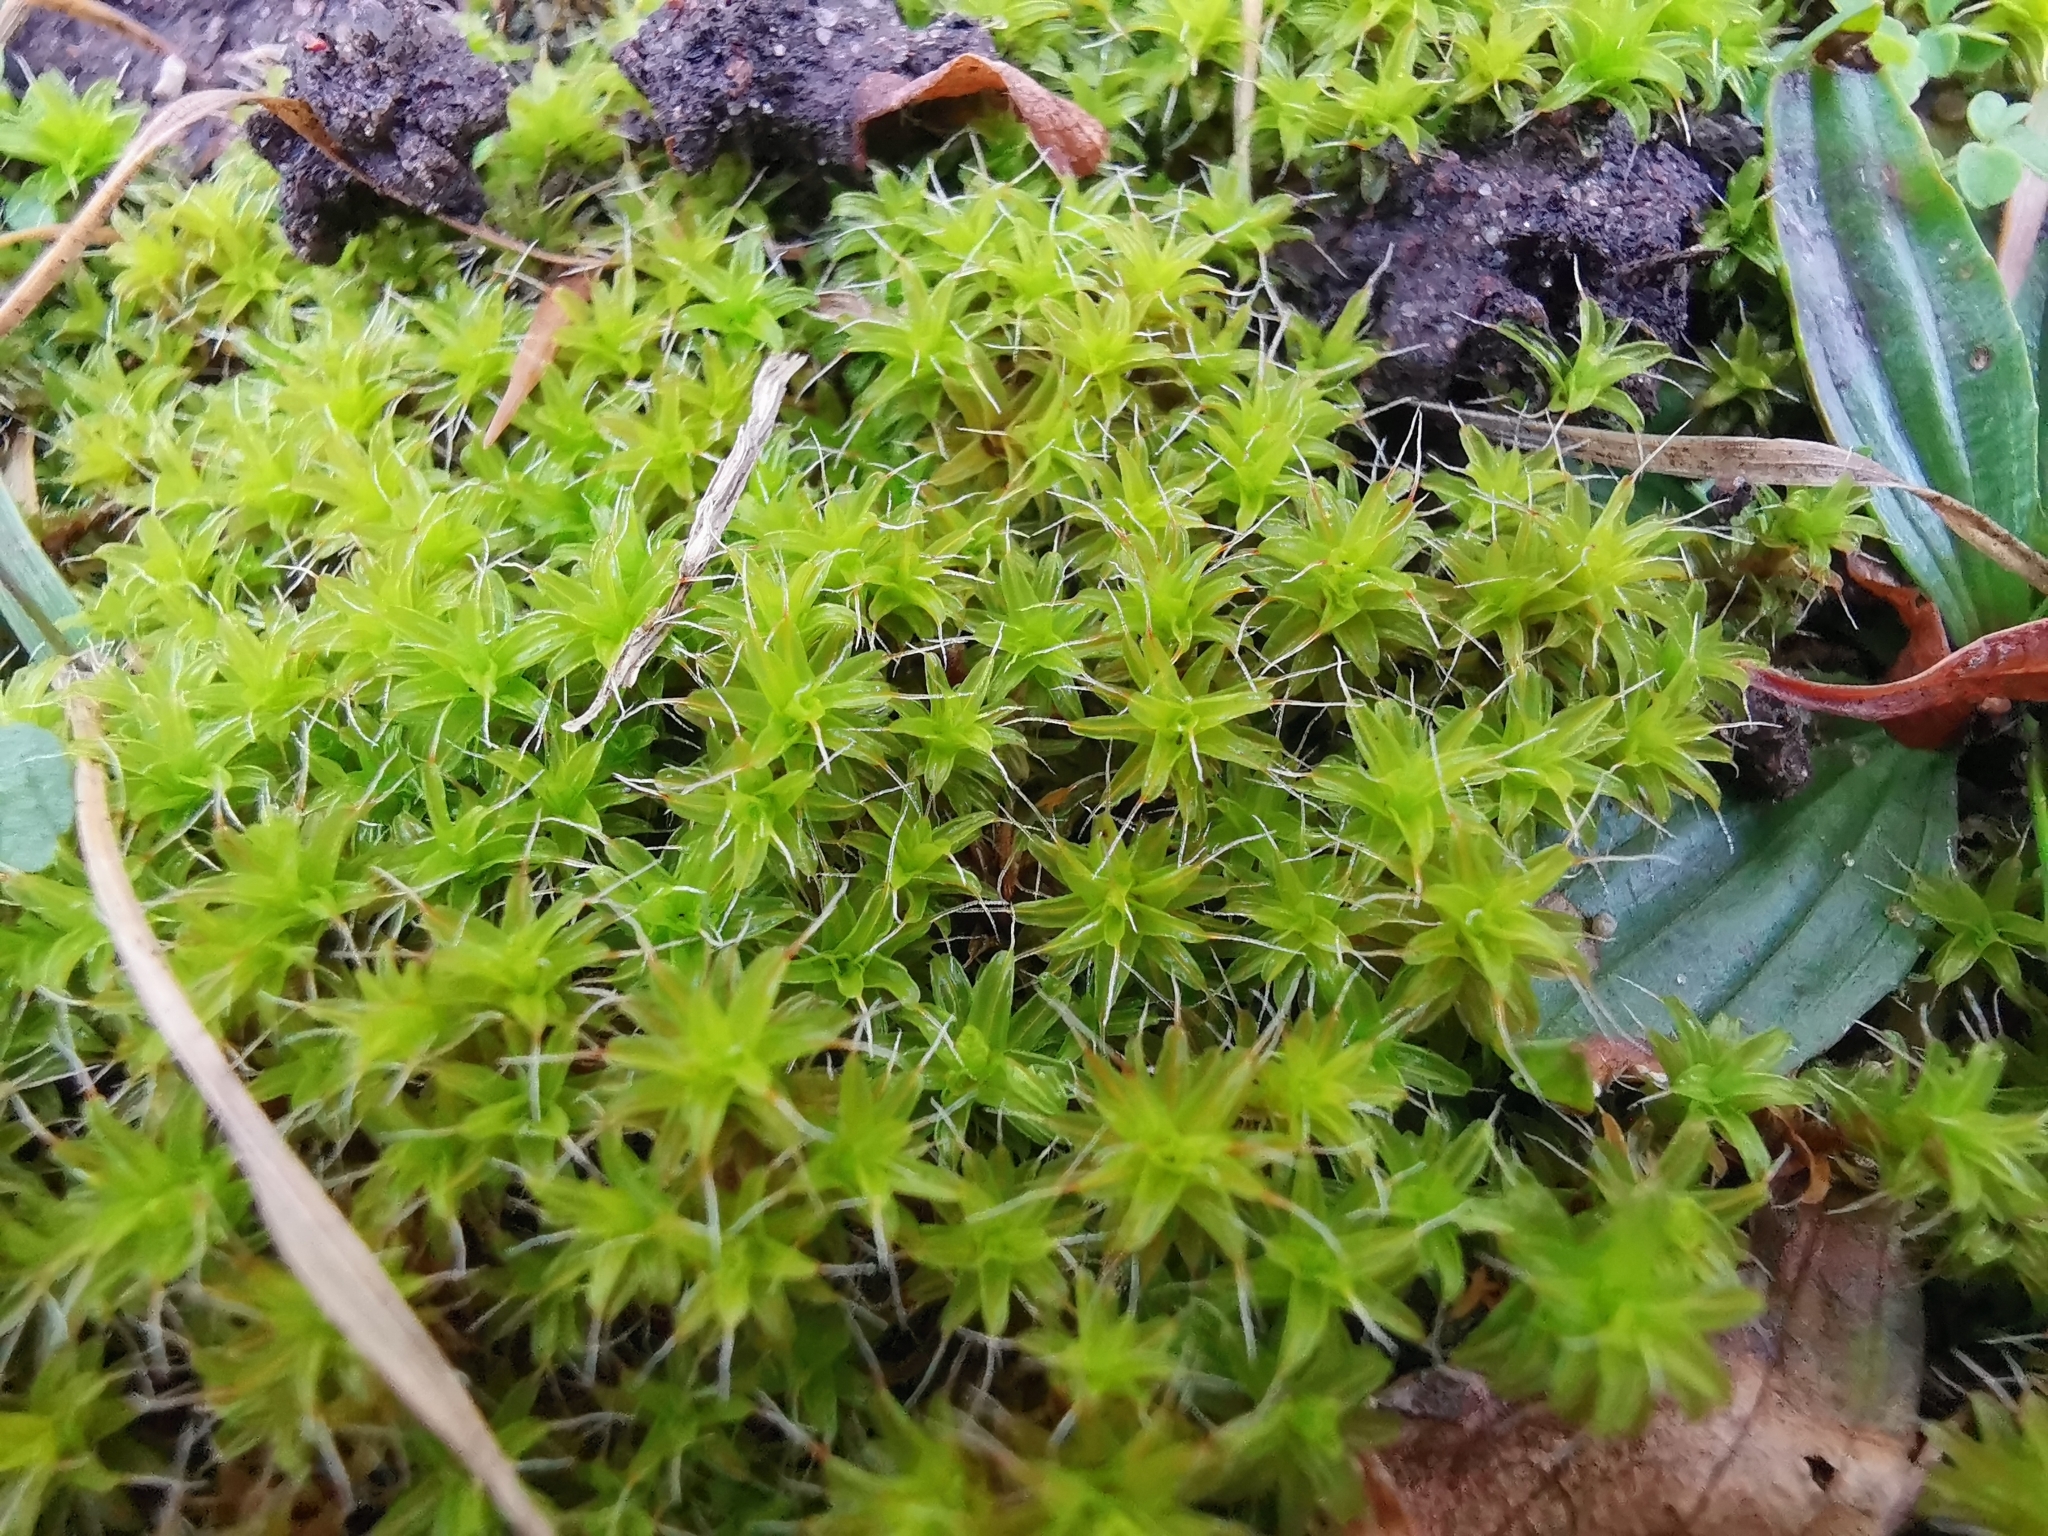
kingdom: Plantae
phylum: Bryophyta
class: Bryopsida
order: Pottiales
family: Pottiaceae
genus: Syntrichia
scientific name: Syntrichia ruralis
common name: Sidewalk screw moss
